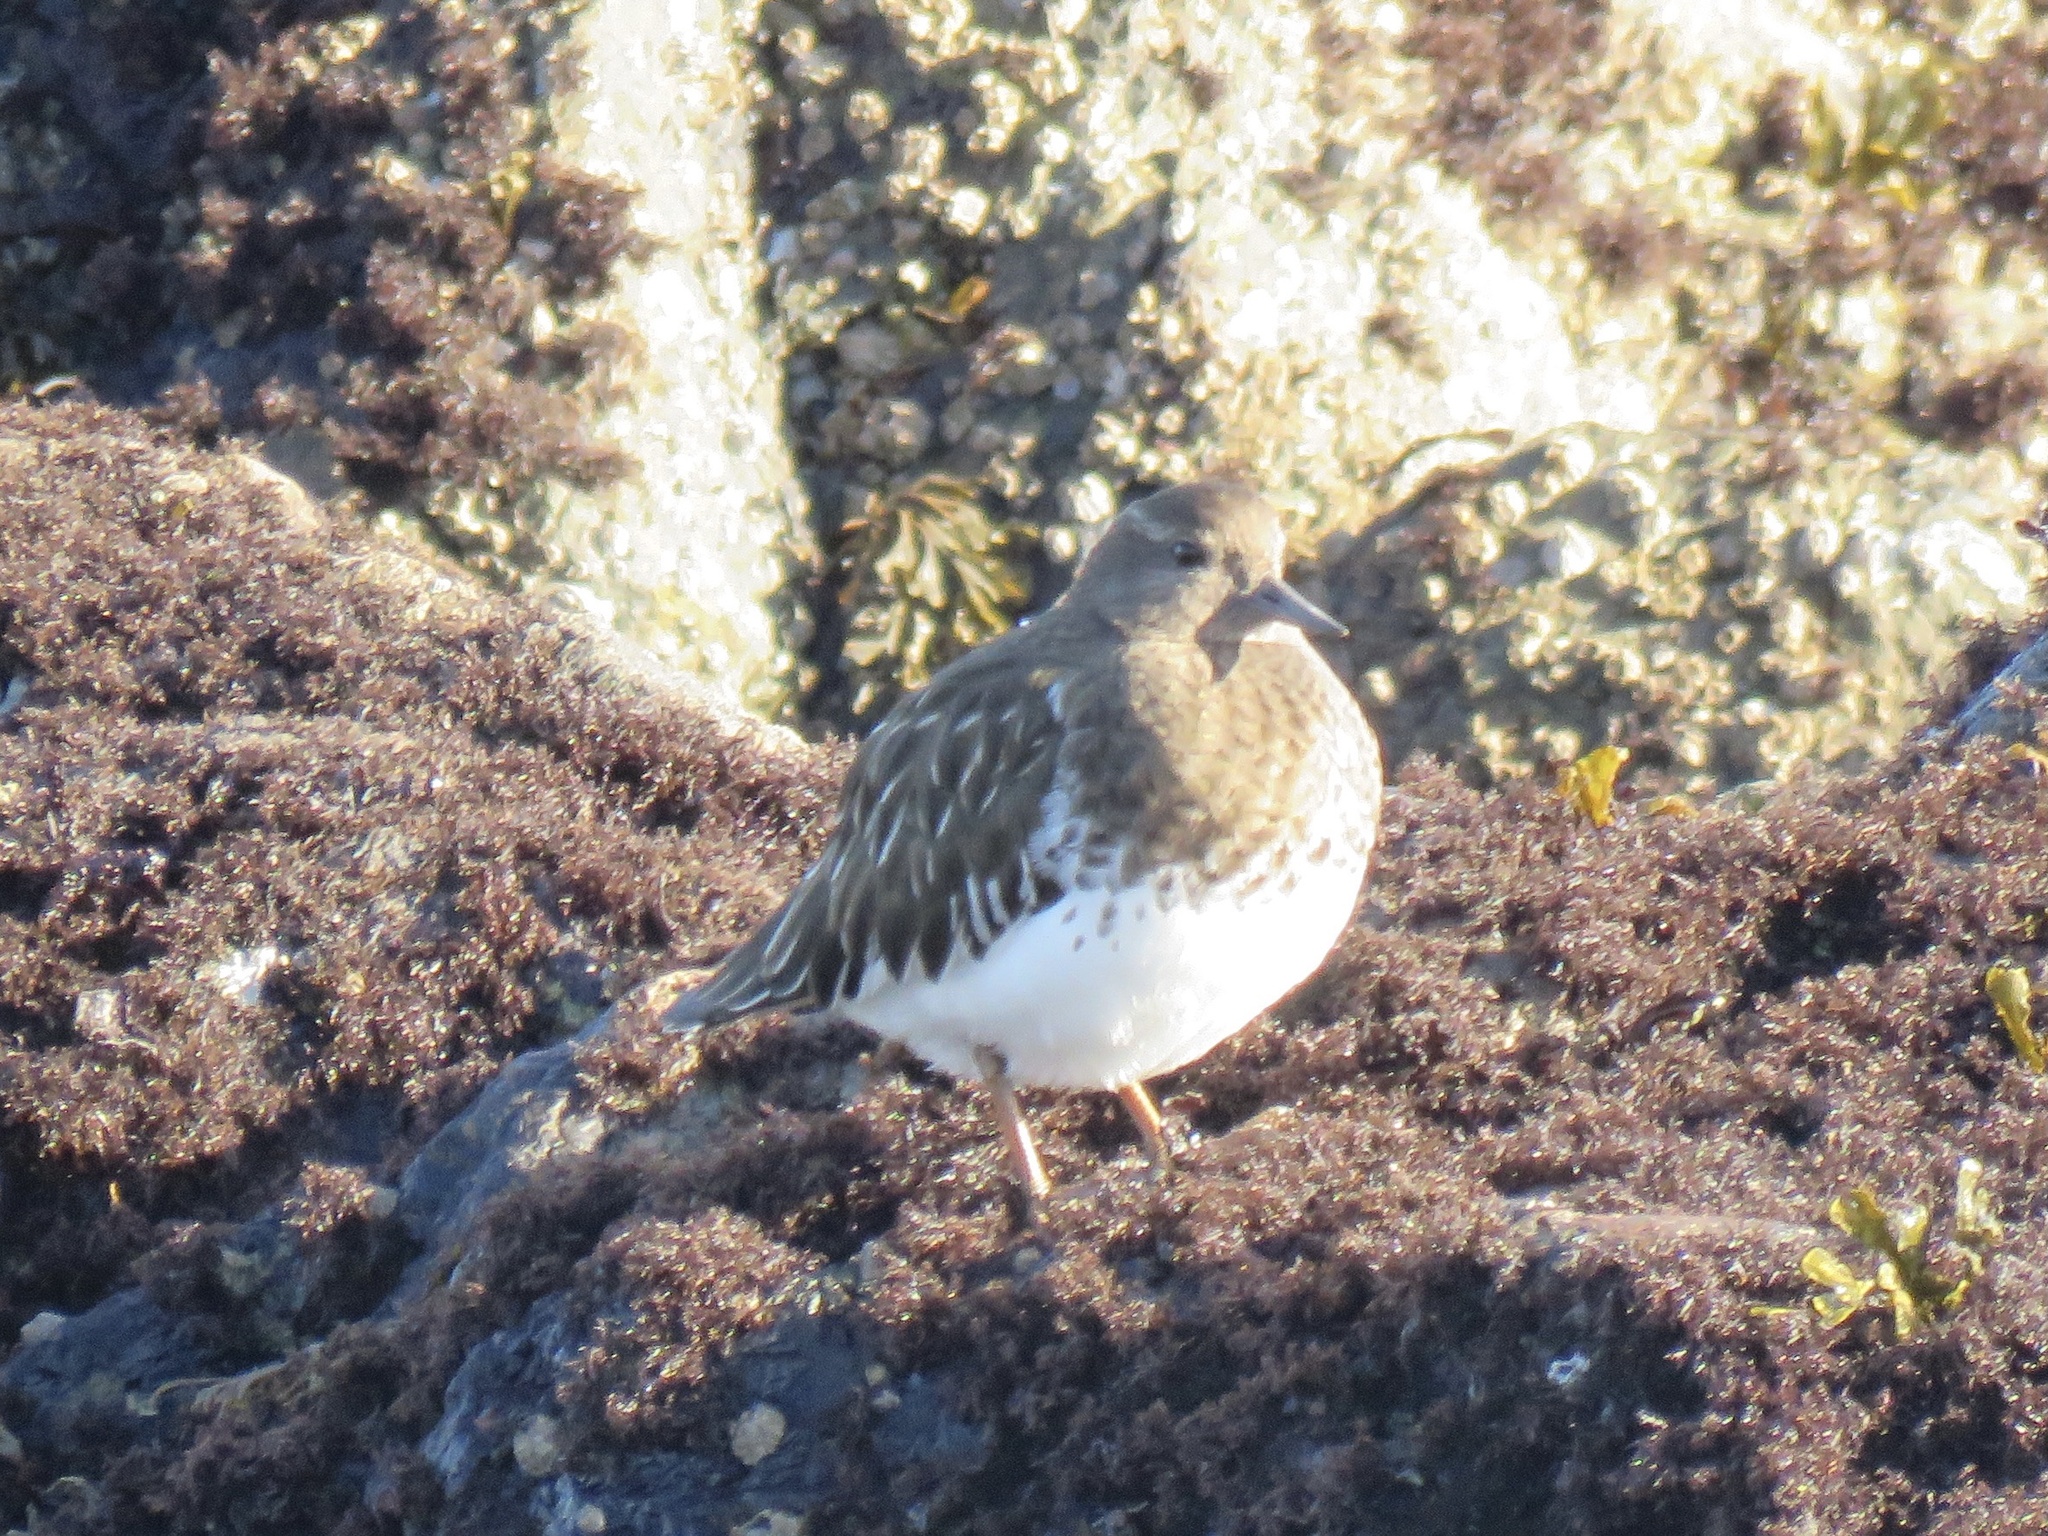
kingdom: Animalia
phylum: Chordata
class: Aves
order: Charadriiformes
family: Scolopacidae
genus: Arenaria
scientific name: Arenaria melanocephala
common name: Black turnstone
